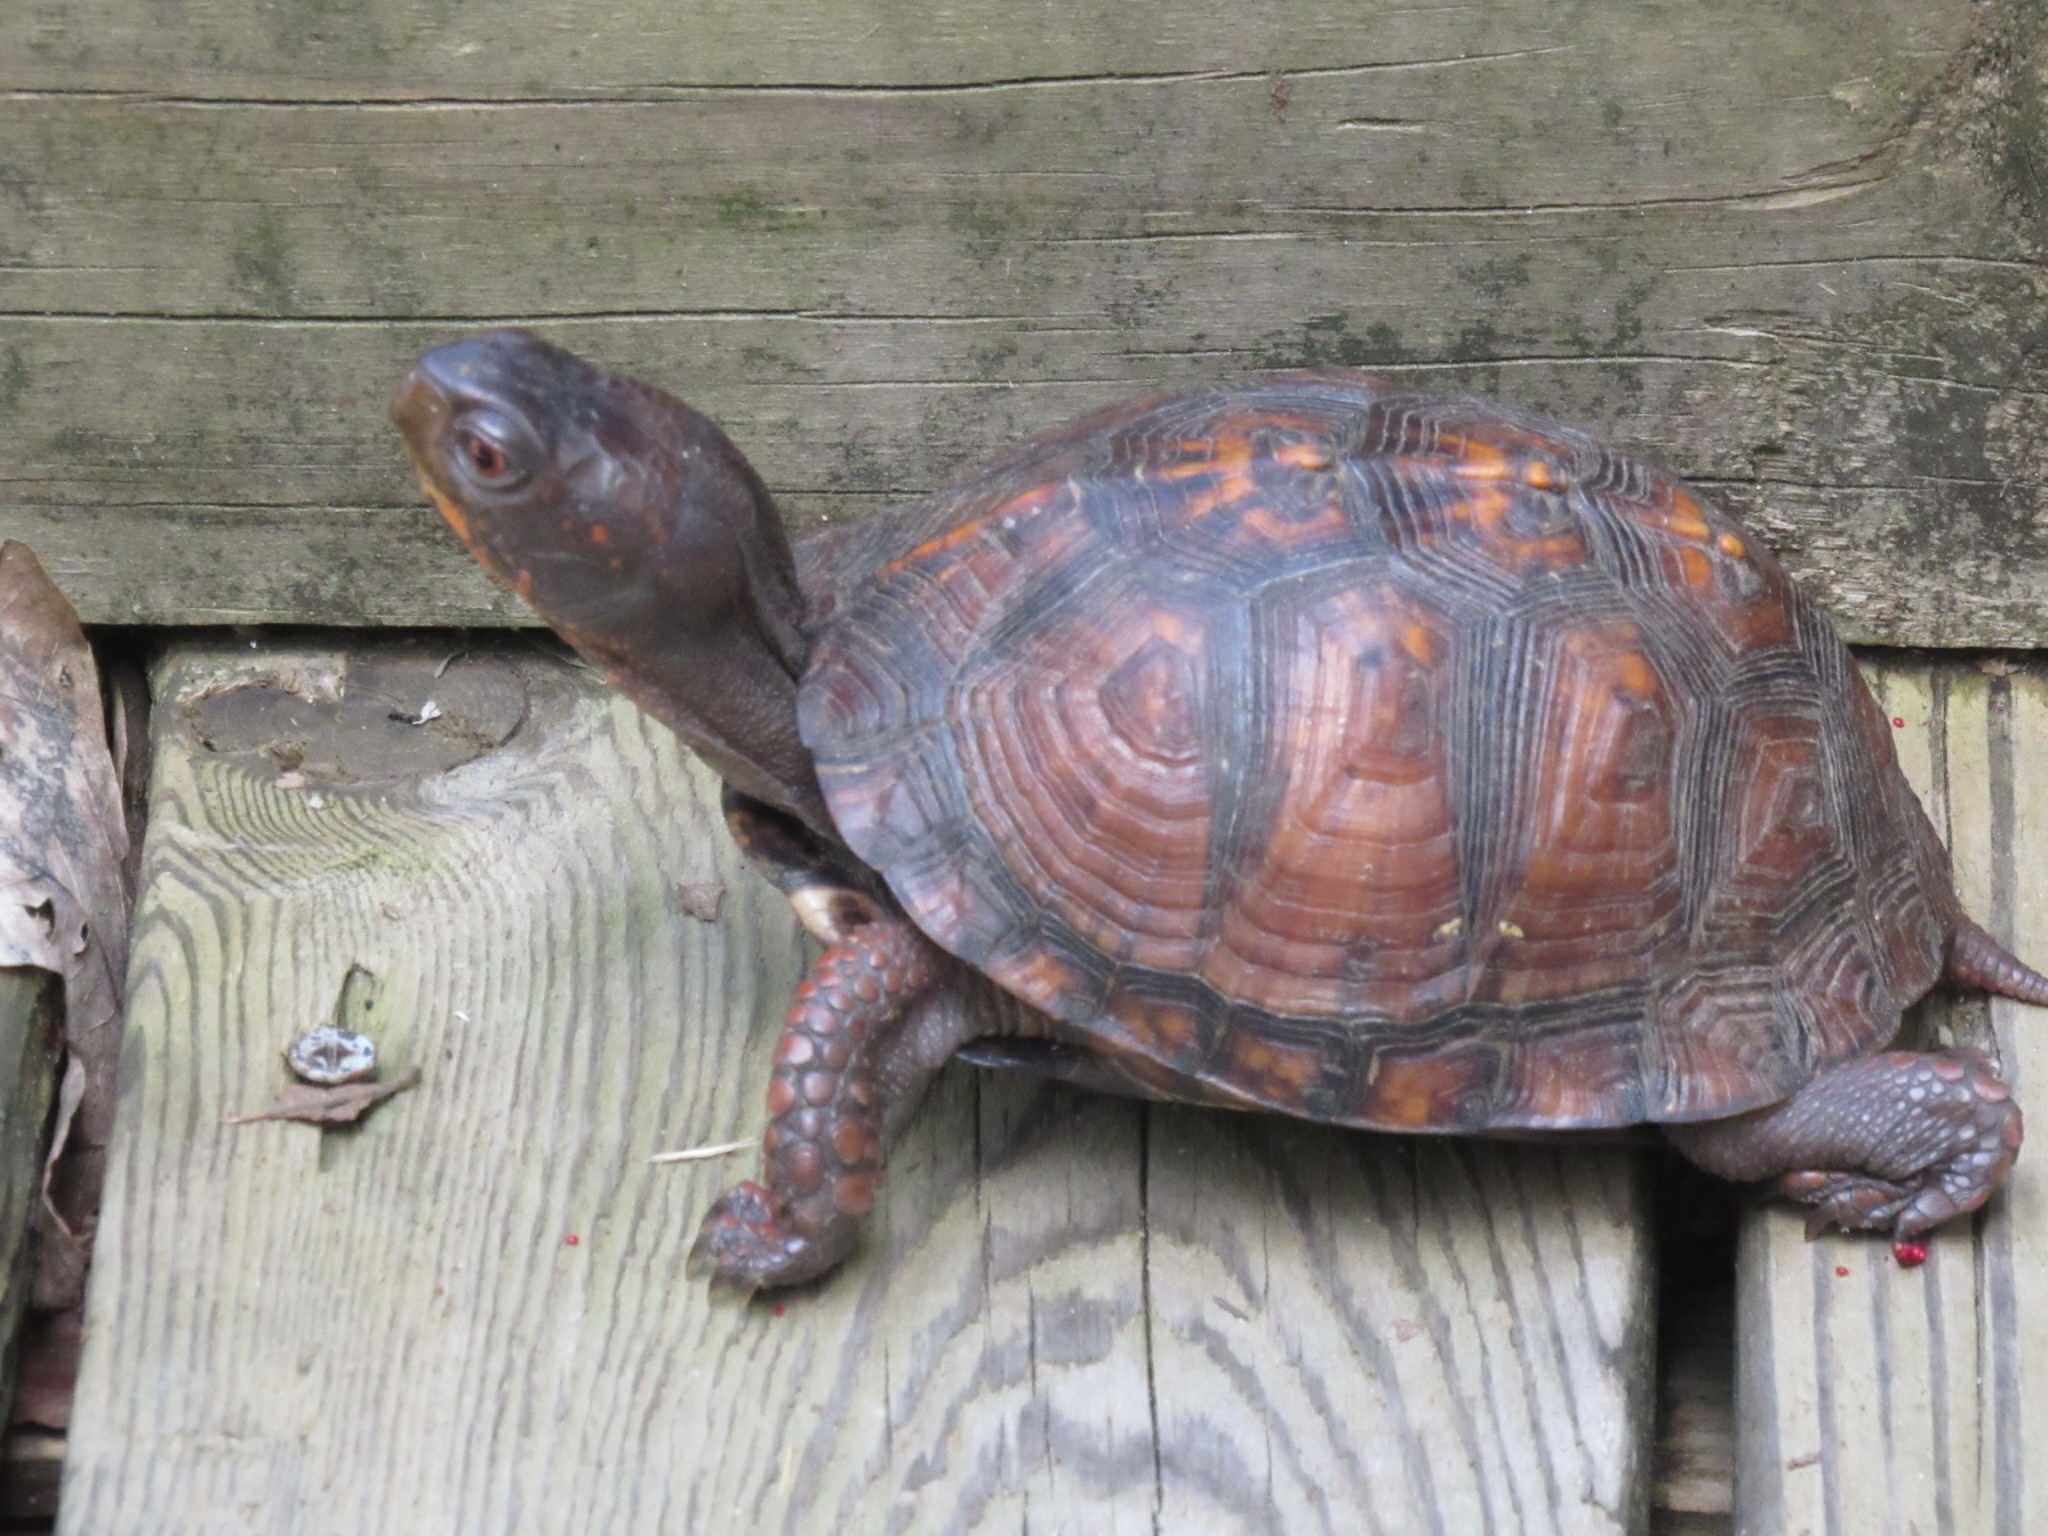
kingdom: Animalia
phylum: Chordata
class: Testudines
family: Emydidae
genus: Terrapene
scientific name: Terrapene carolina
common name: Common box turtle
